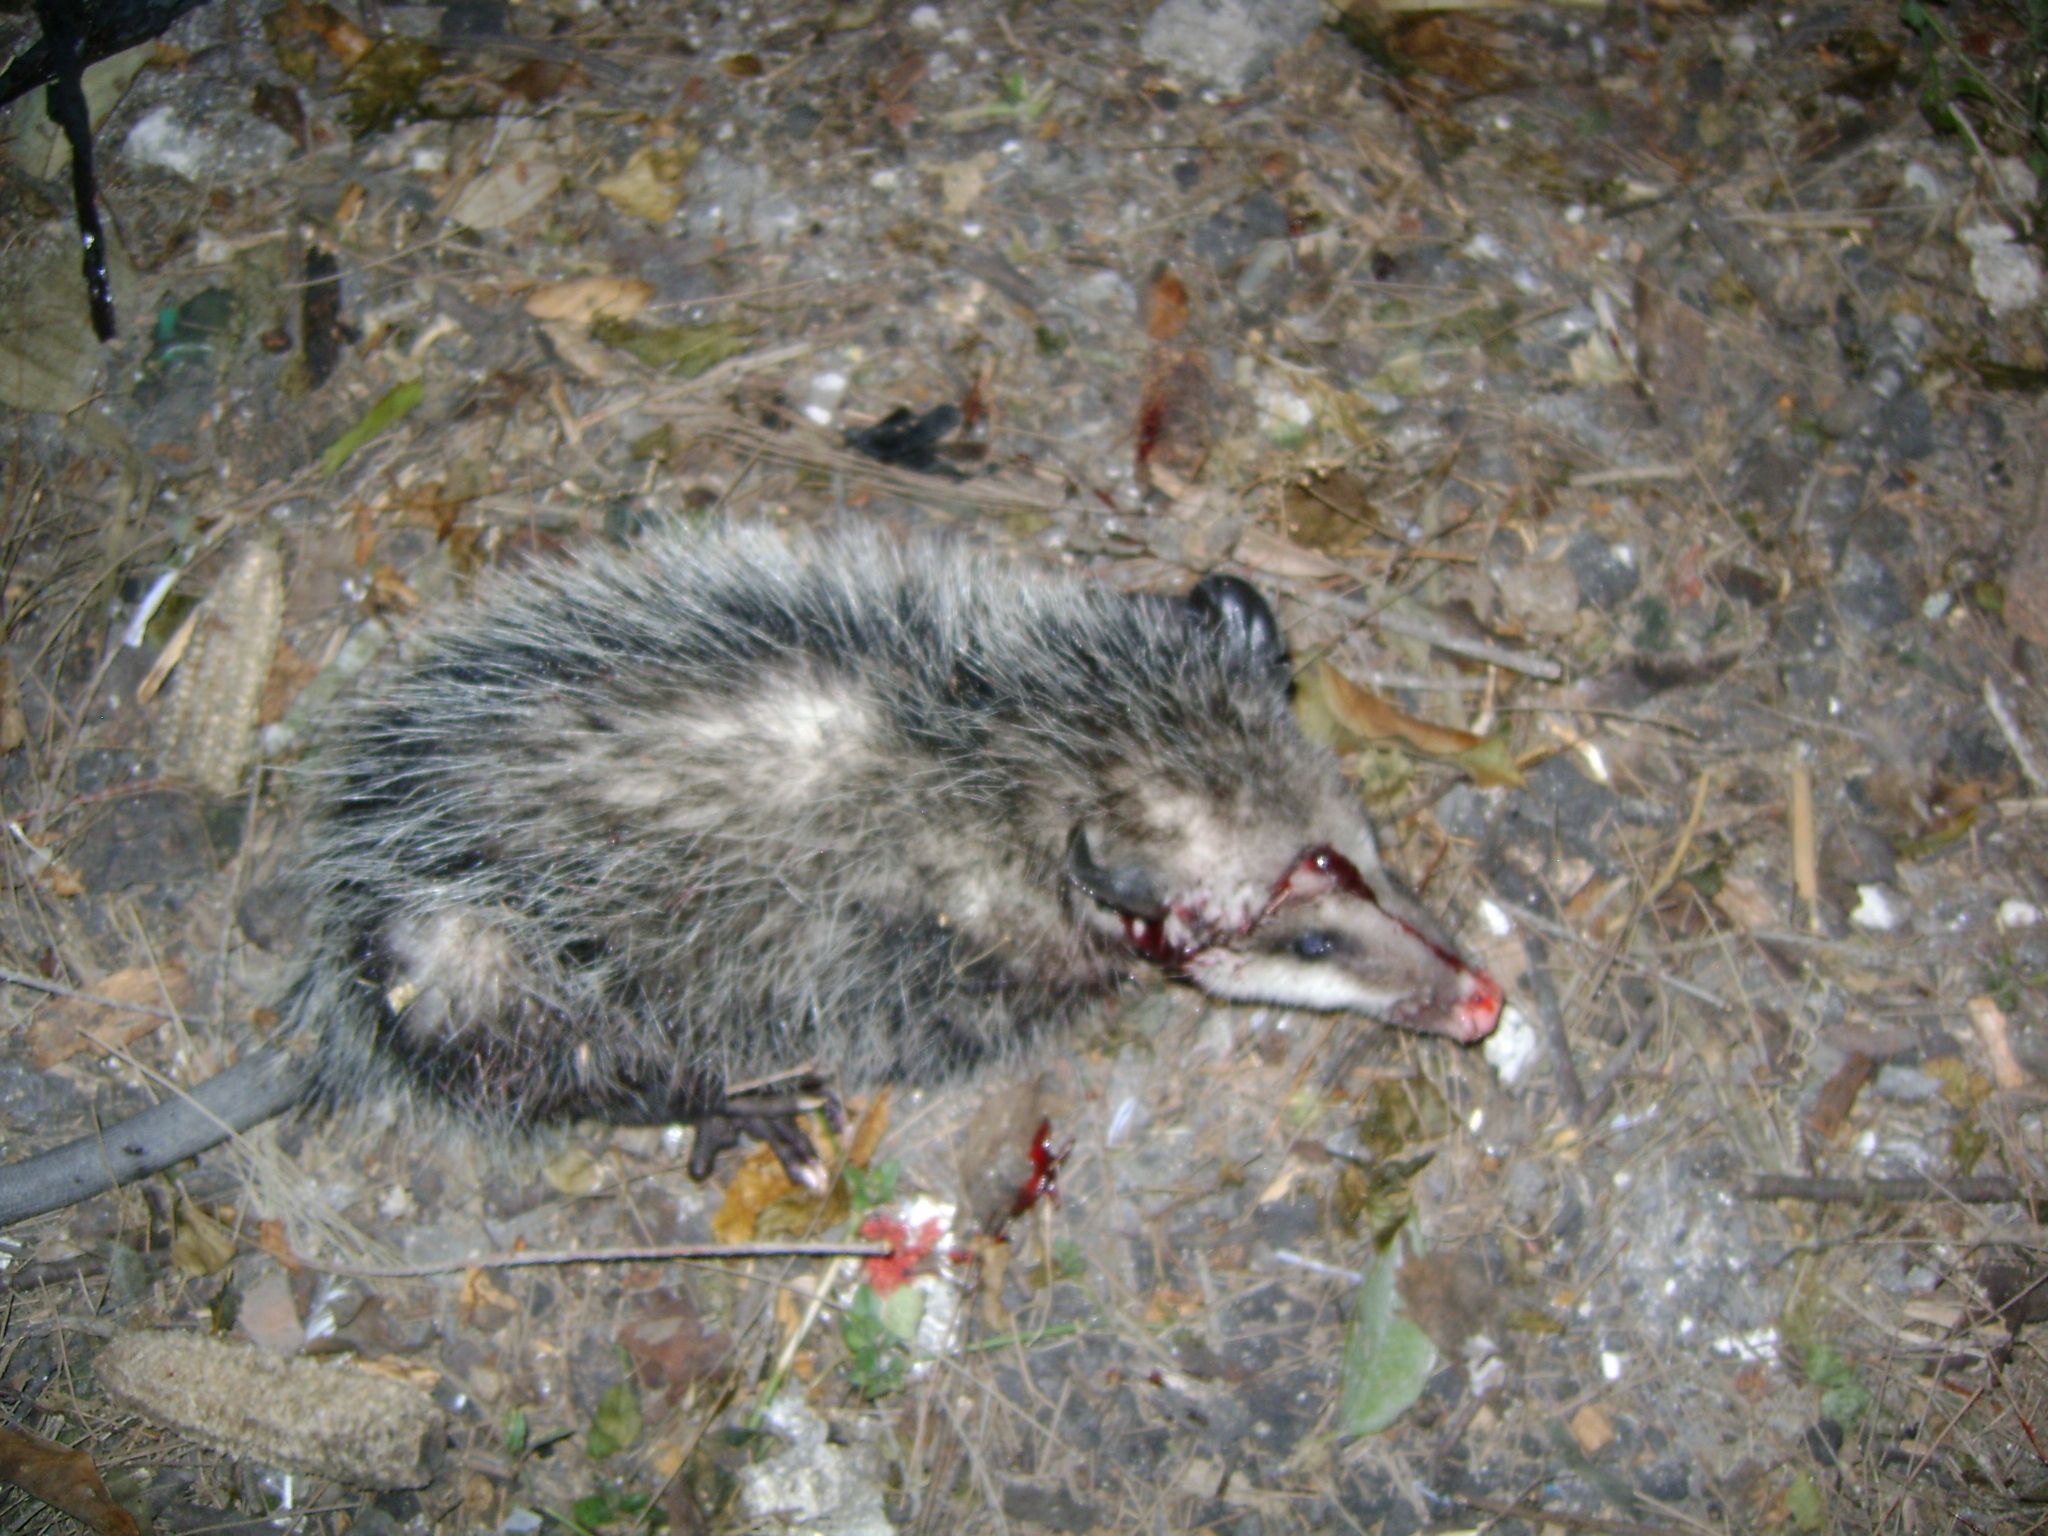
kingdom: Animalia
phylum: Chordata
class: Mammalia
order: Didelphimorphia
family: Didelphidae
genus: Didelphis
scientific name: Didelphis virginiana
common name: Virginia opossum
